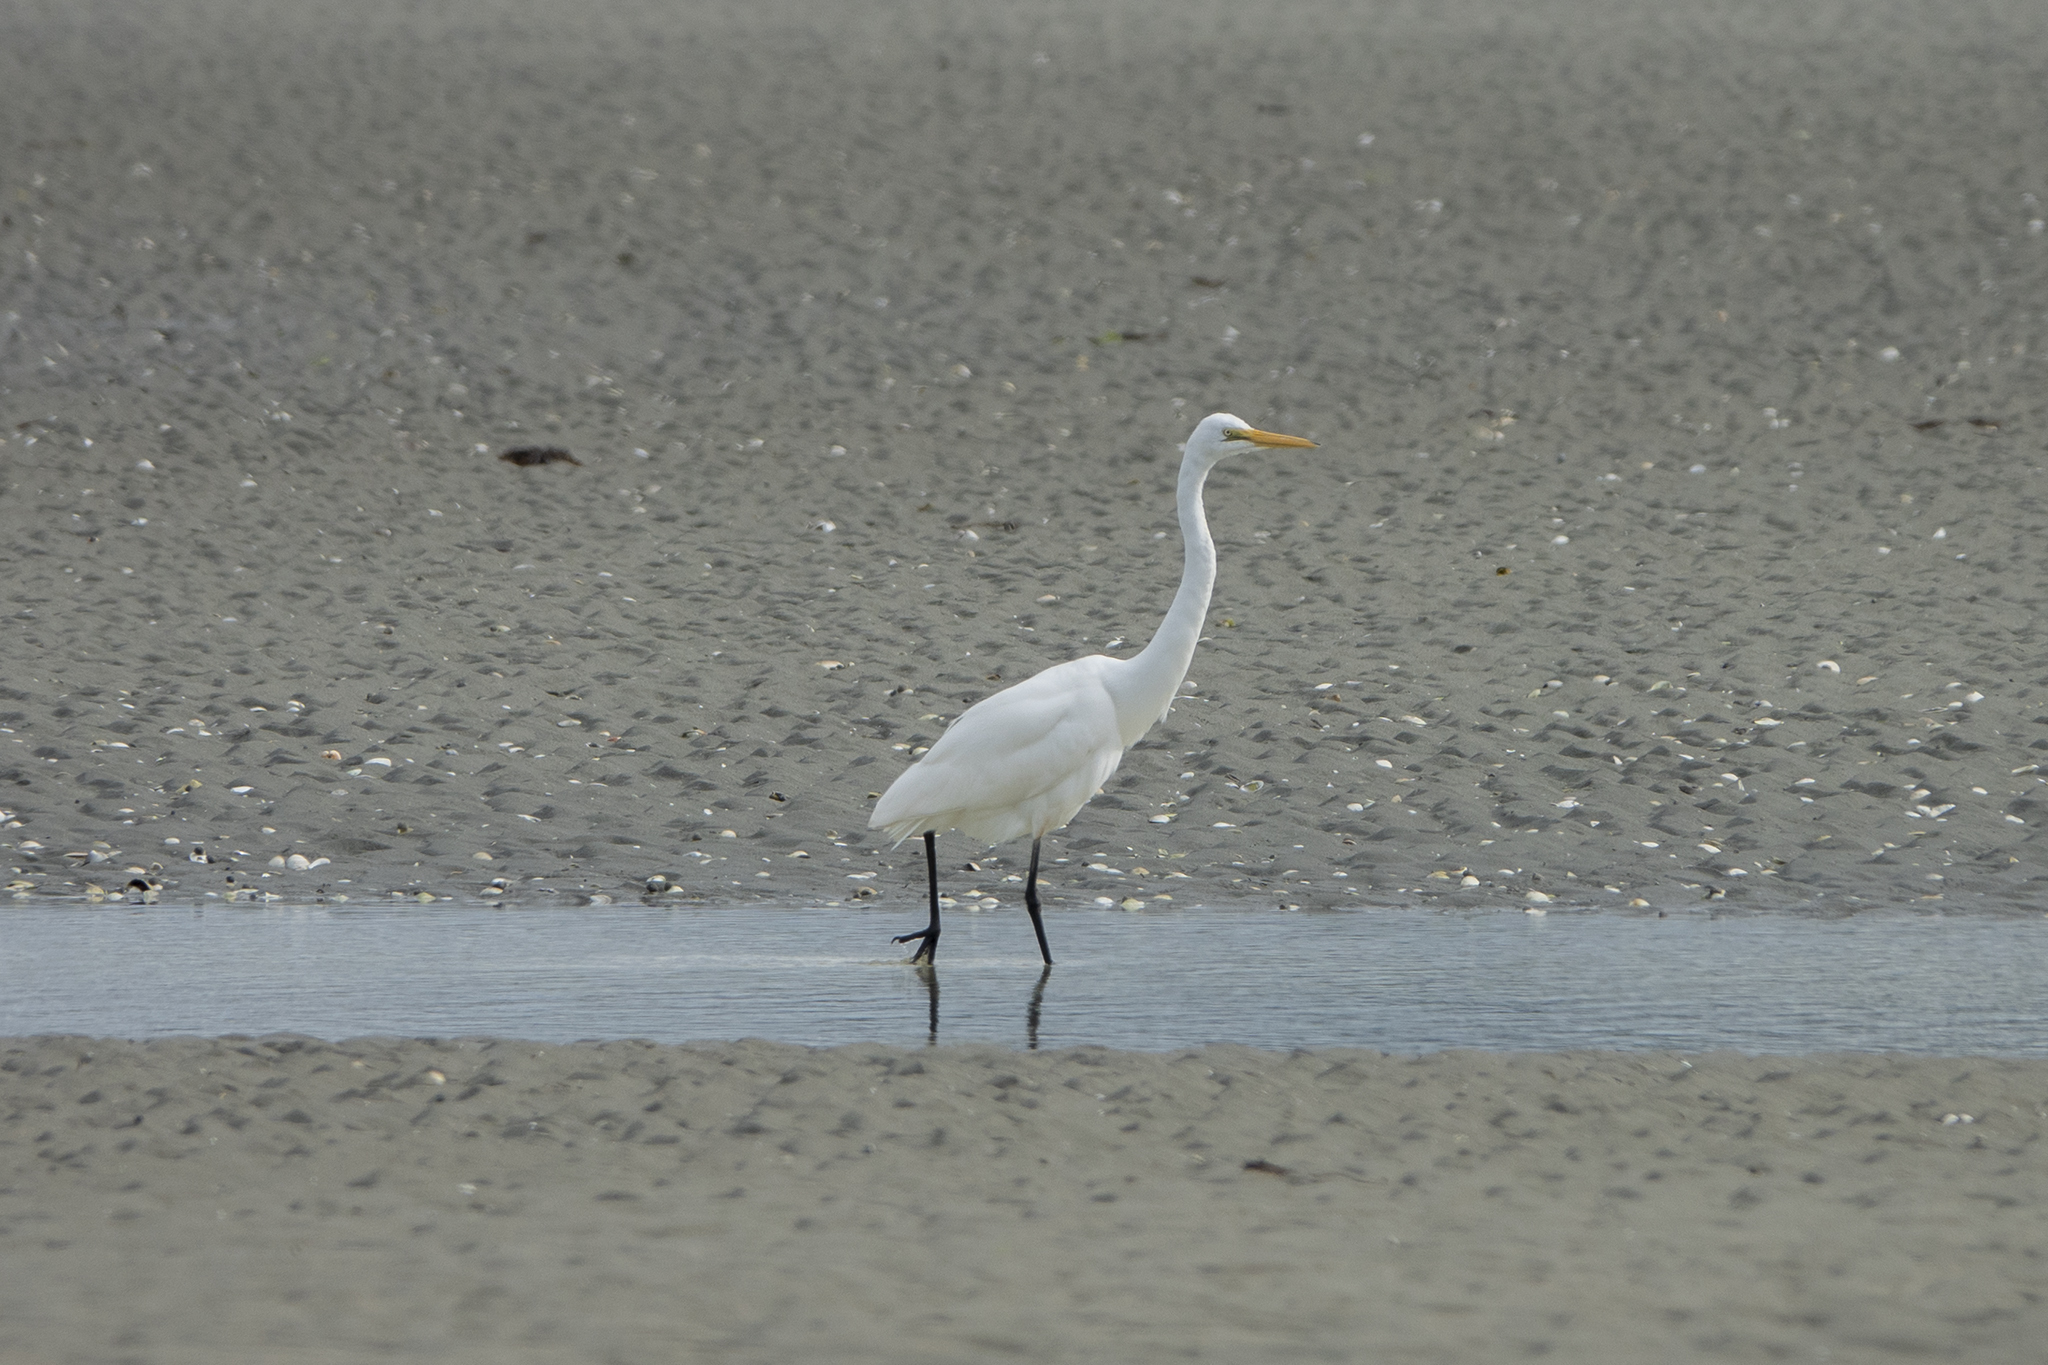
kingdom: Animalia
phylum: Chordata
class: Aves
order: Pelecaniformes
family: Ardeidae
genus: Ardea
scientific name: Ardea modesta
